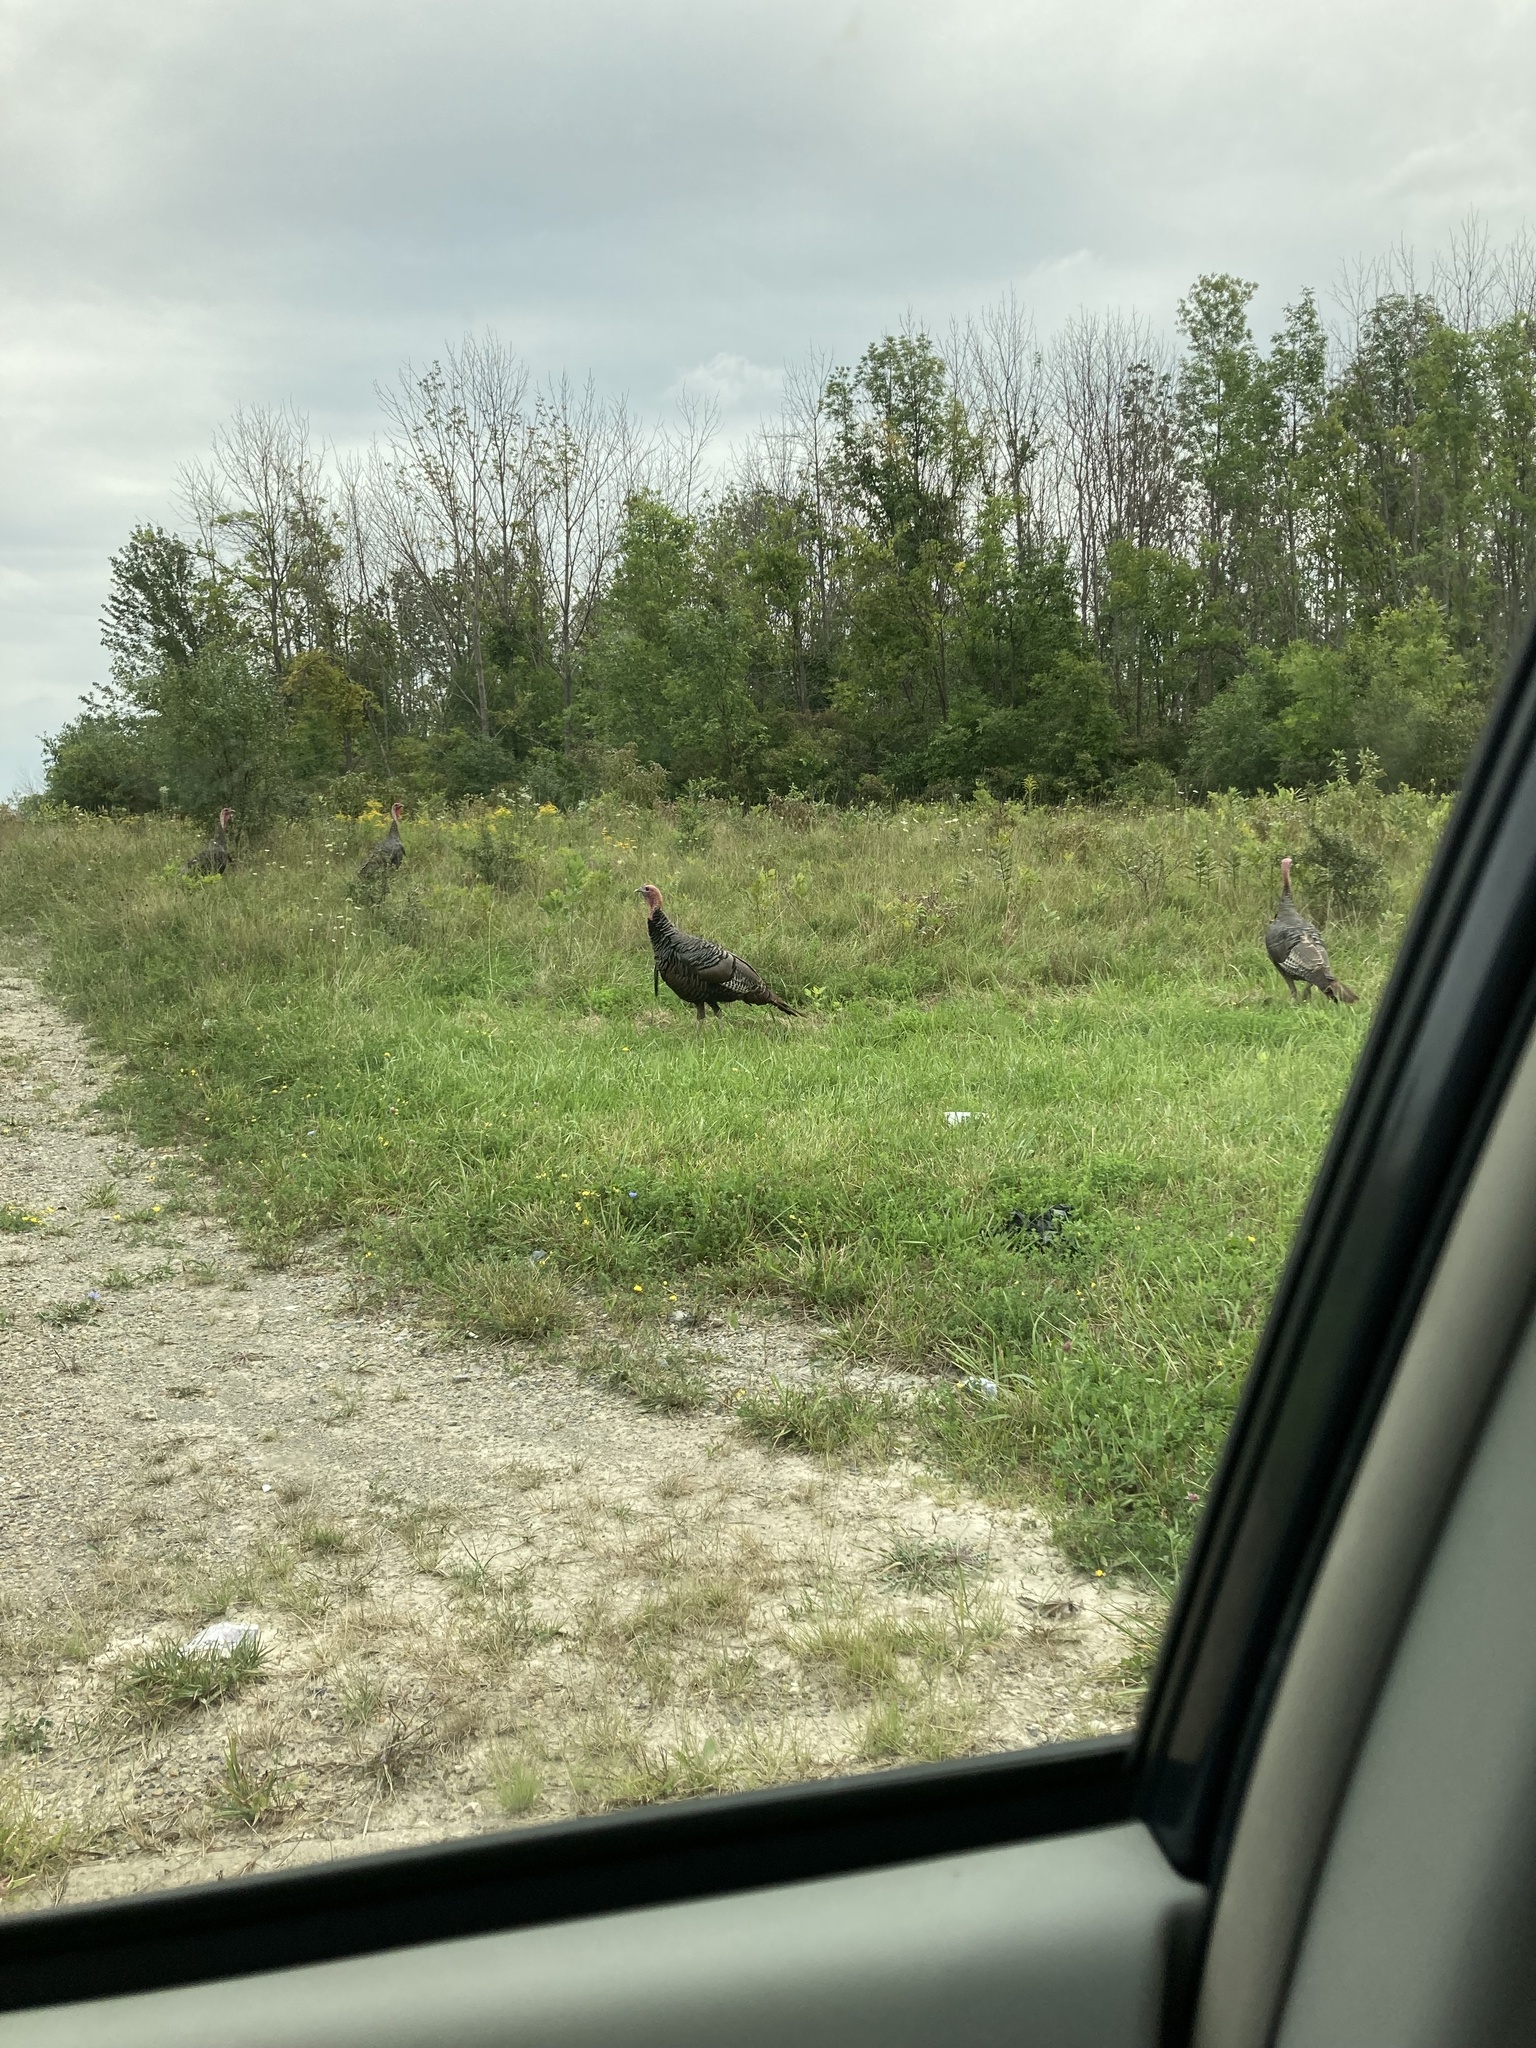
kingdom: Animalia
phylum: Chordata
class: Aves
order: Galliformes
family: Phasianidae
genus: Meleagris
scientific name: Meleagris gallopavo
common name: Wild turkey
